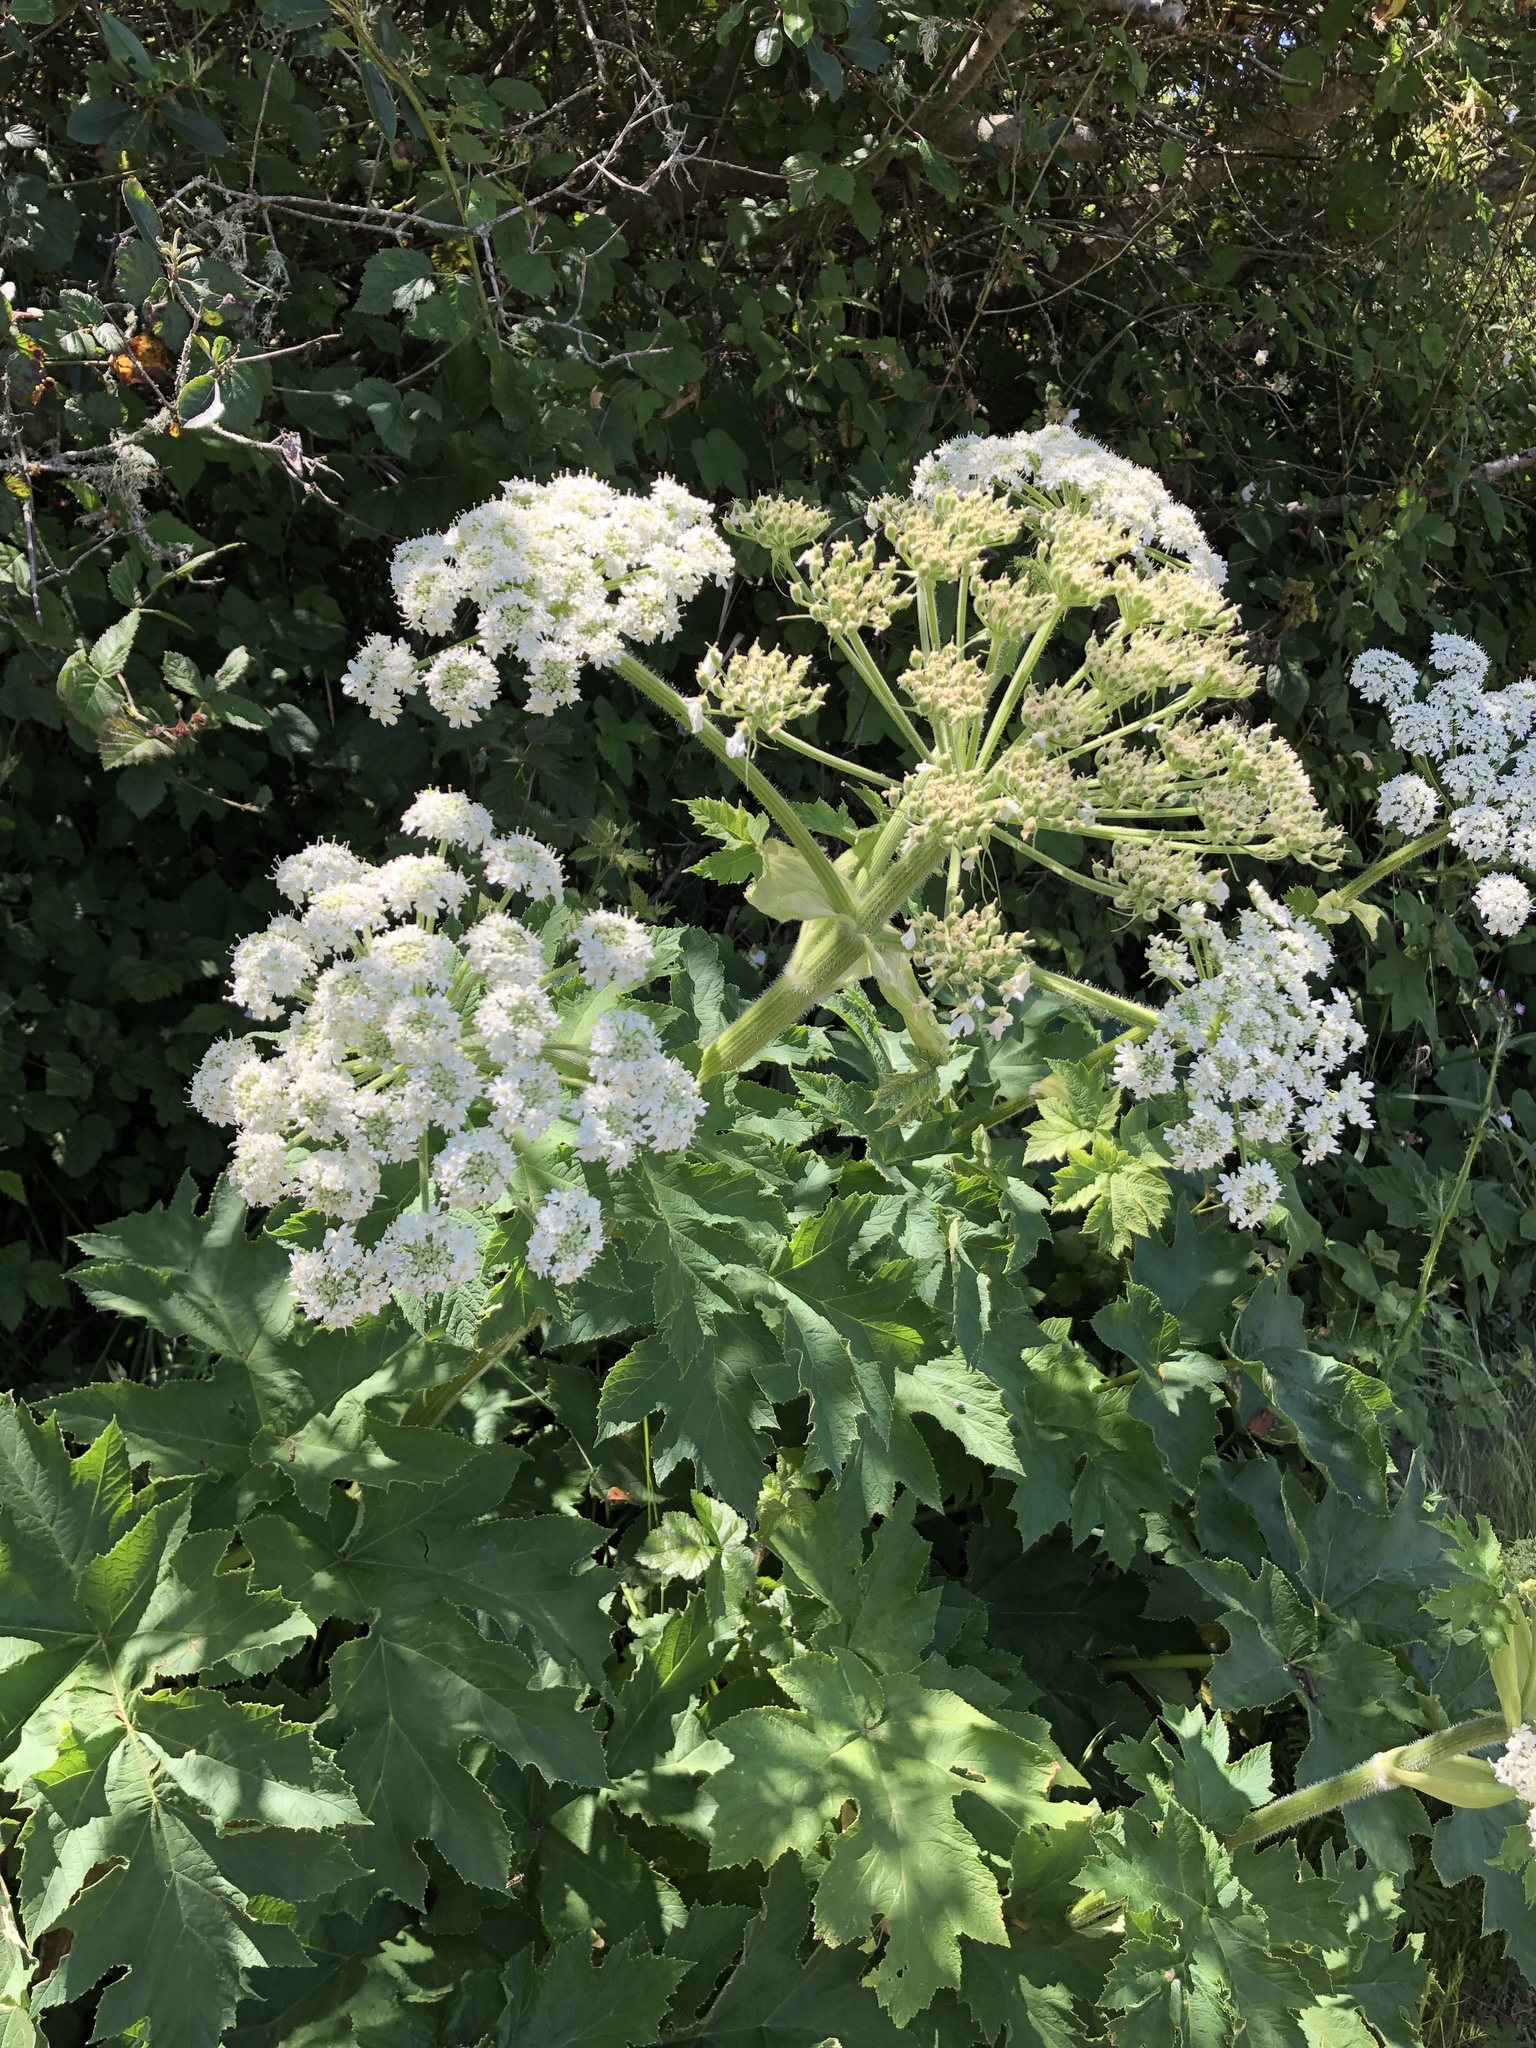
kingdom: Plantae
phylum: Tracheophyta
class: Magnoliopsida
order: Apiales
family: Apiaceae
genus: Heracleum
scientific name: Heracleum maximum
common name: American cow parsnip
